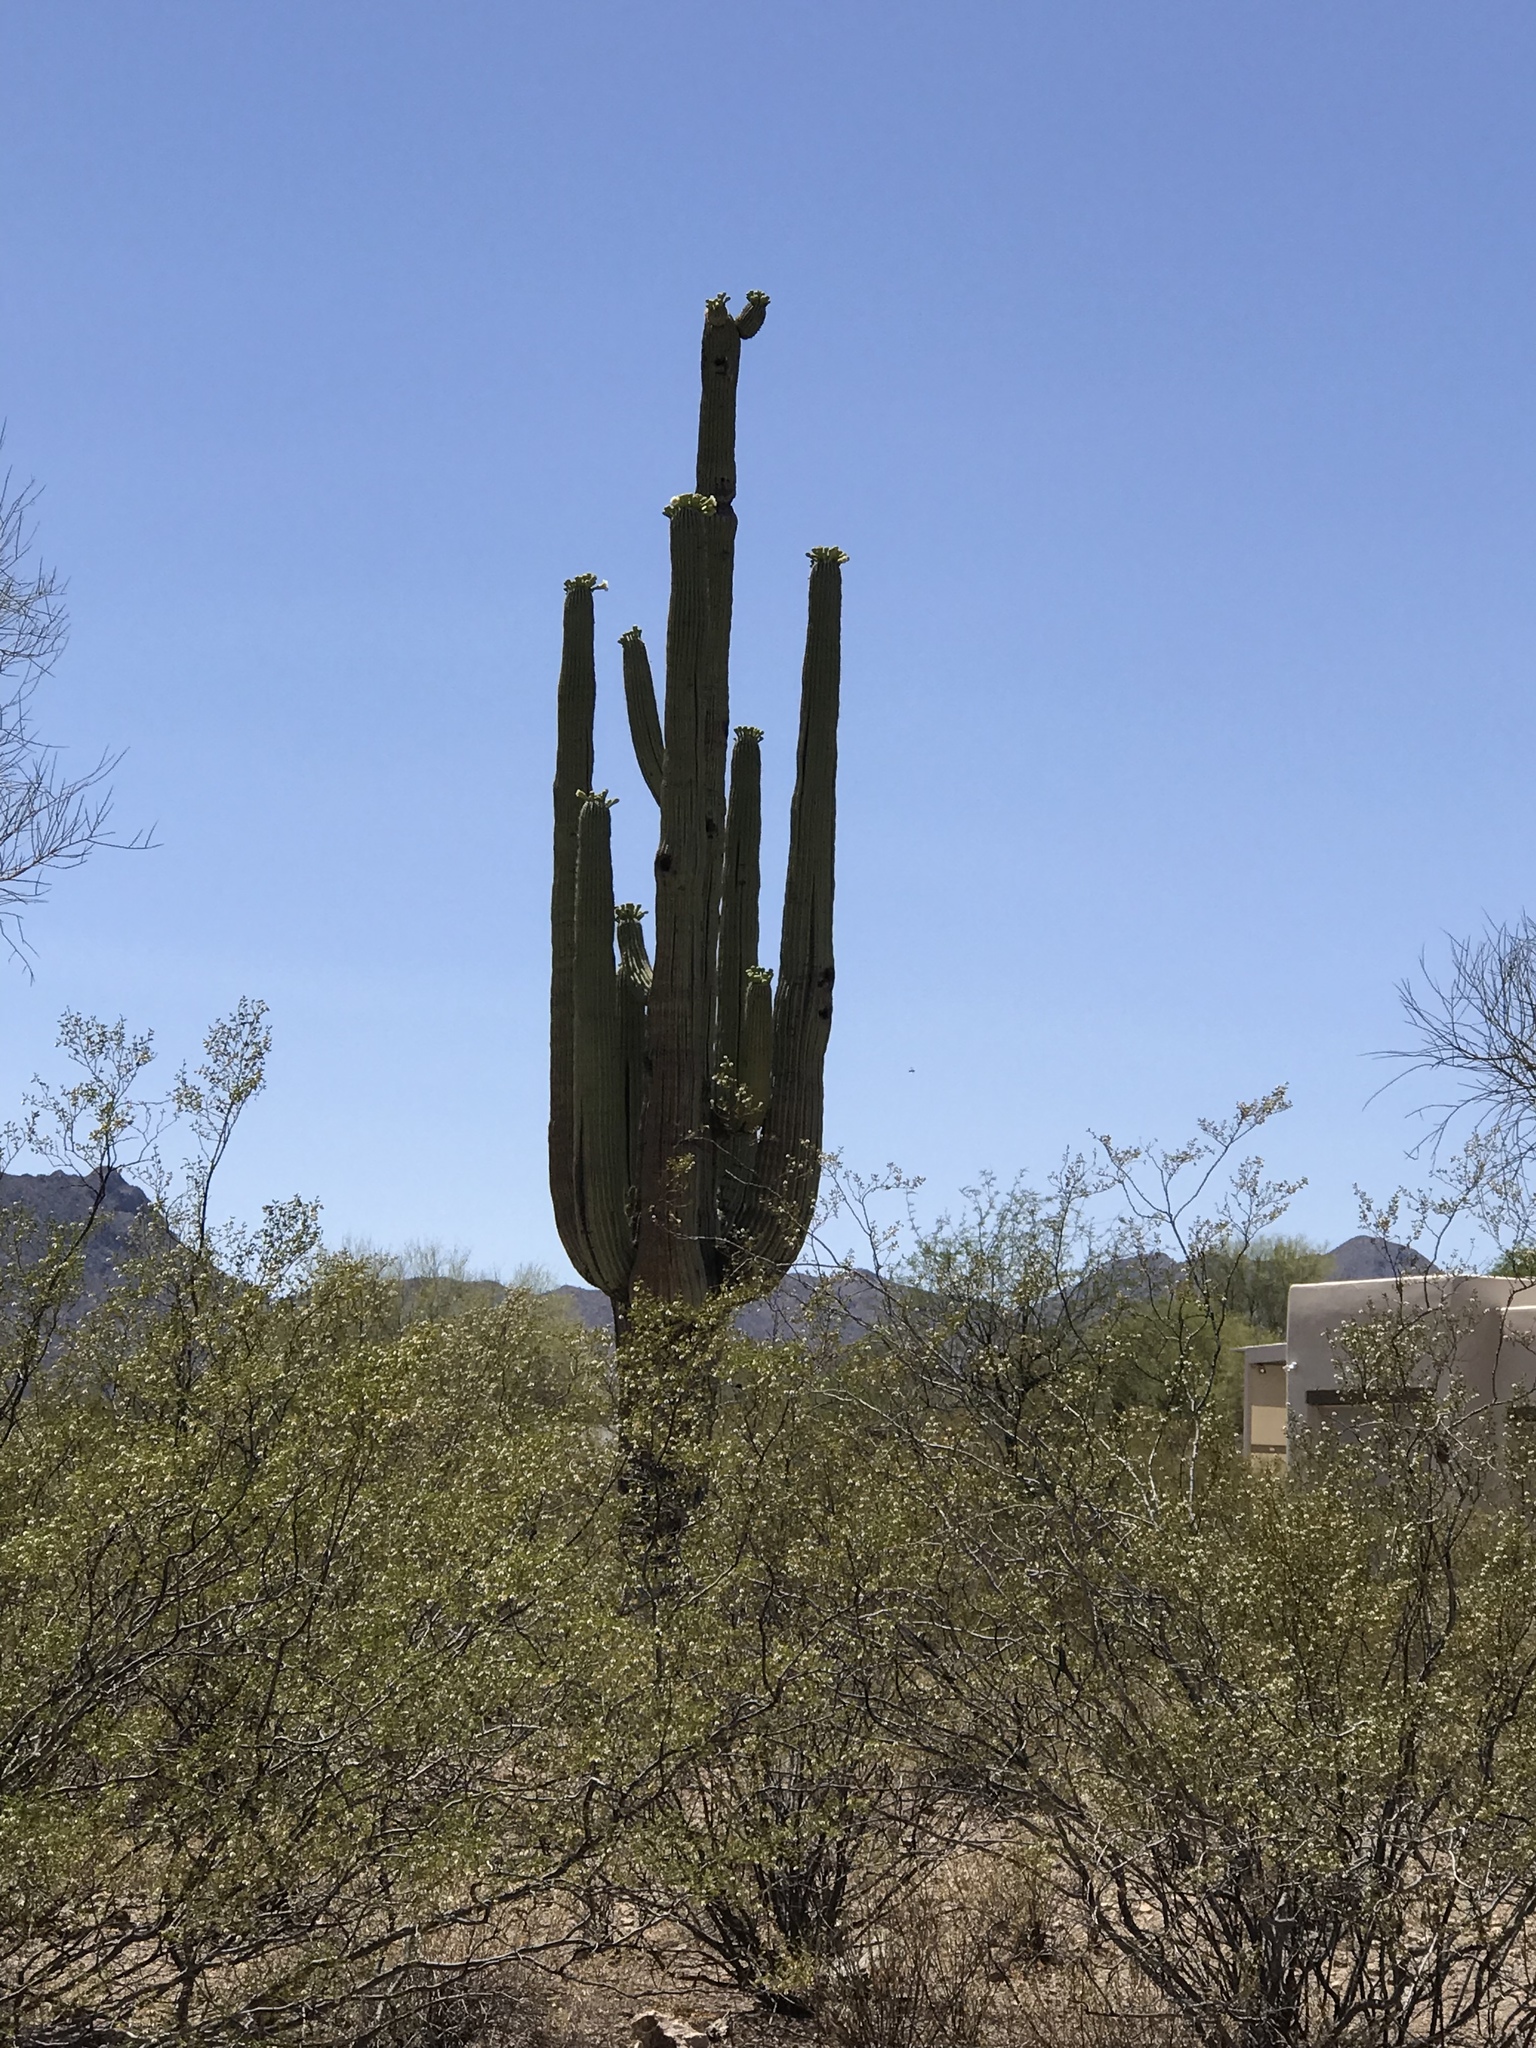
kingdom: Plantae
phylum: Tracheophyta
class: Magnoliopsida
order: Caryophyllales
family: Cactaceae
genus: Carnegiea
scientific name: Carnegiea gigantea
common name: Saguaro
